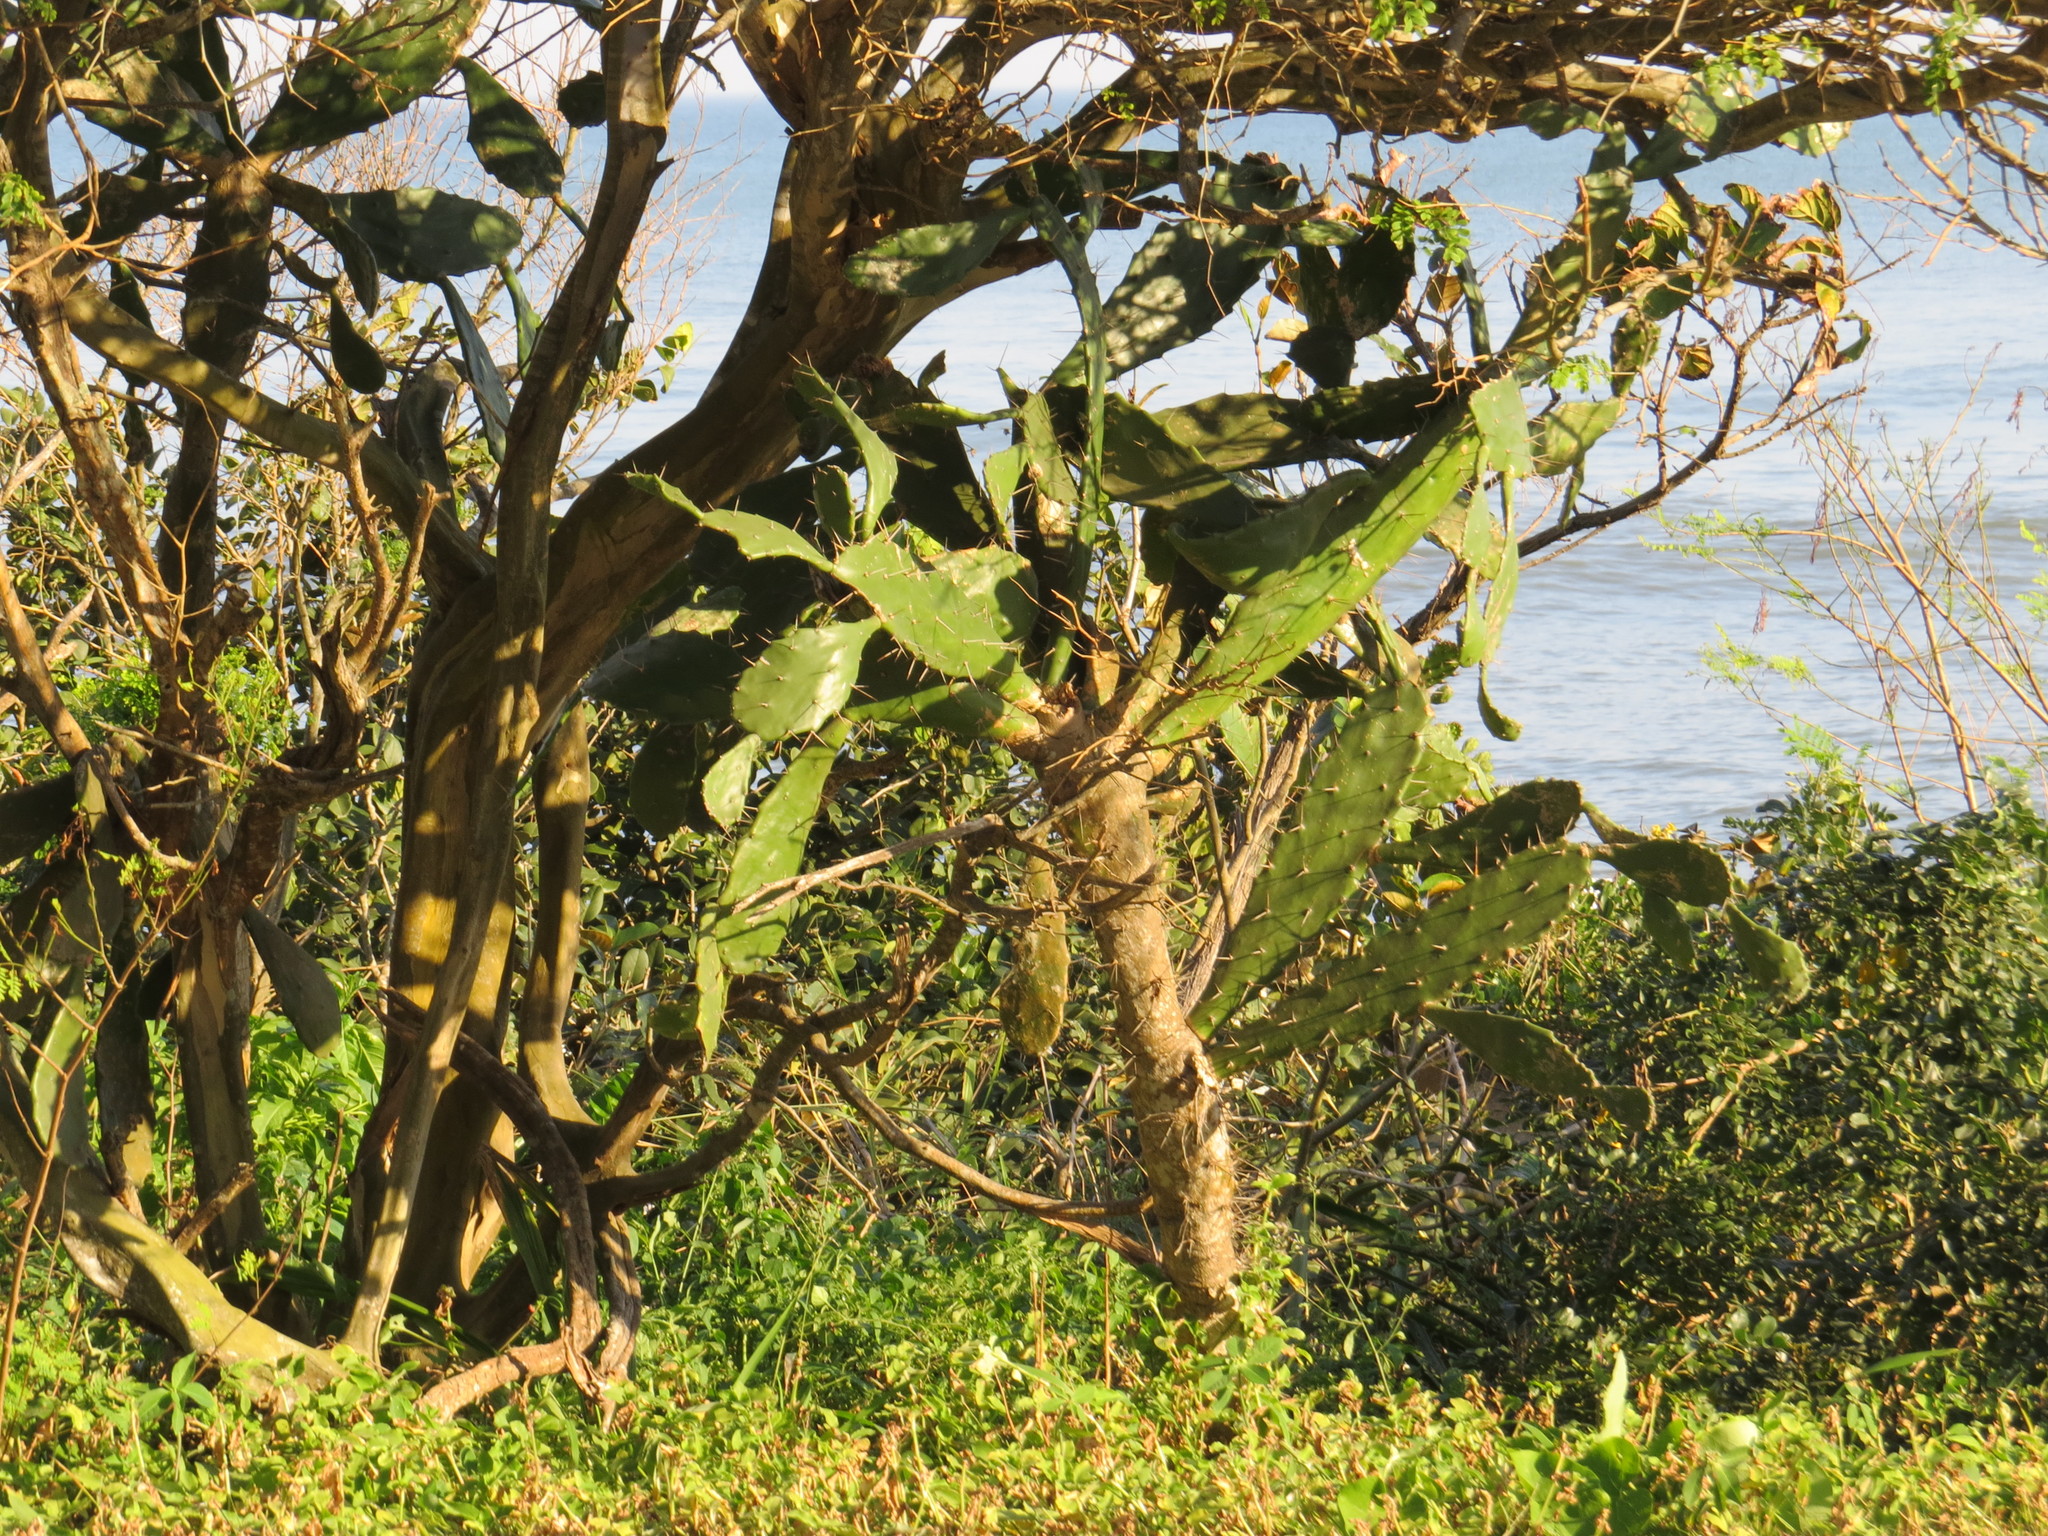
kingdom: Plantae
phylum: Tracheophyta
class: Magnoliopsida
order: Caryophyllales
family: Cactaceae
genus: Opuntia
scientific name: Opuntia monacantha
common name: Common pricklypear
